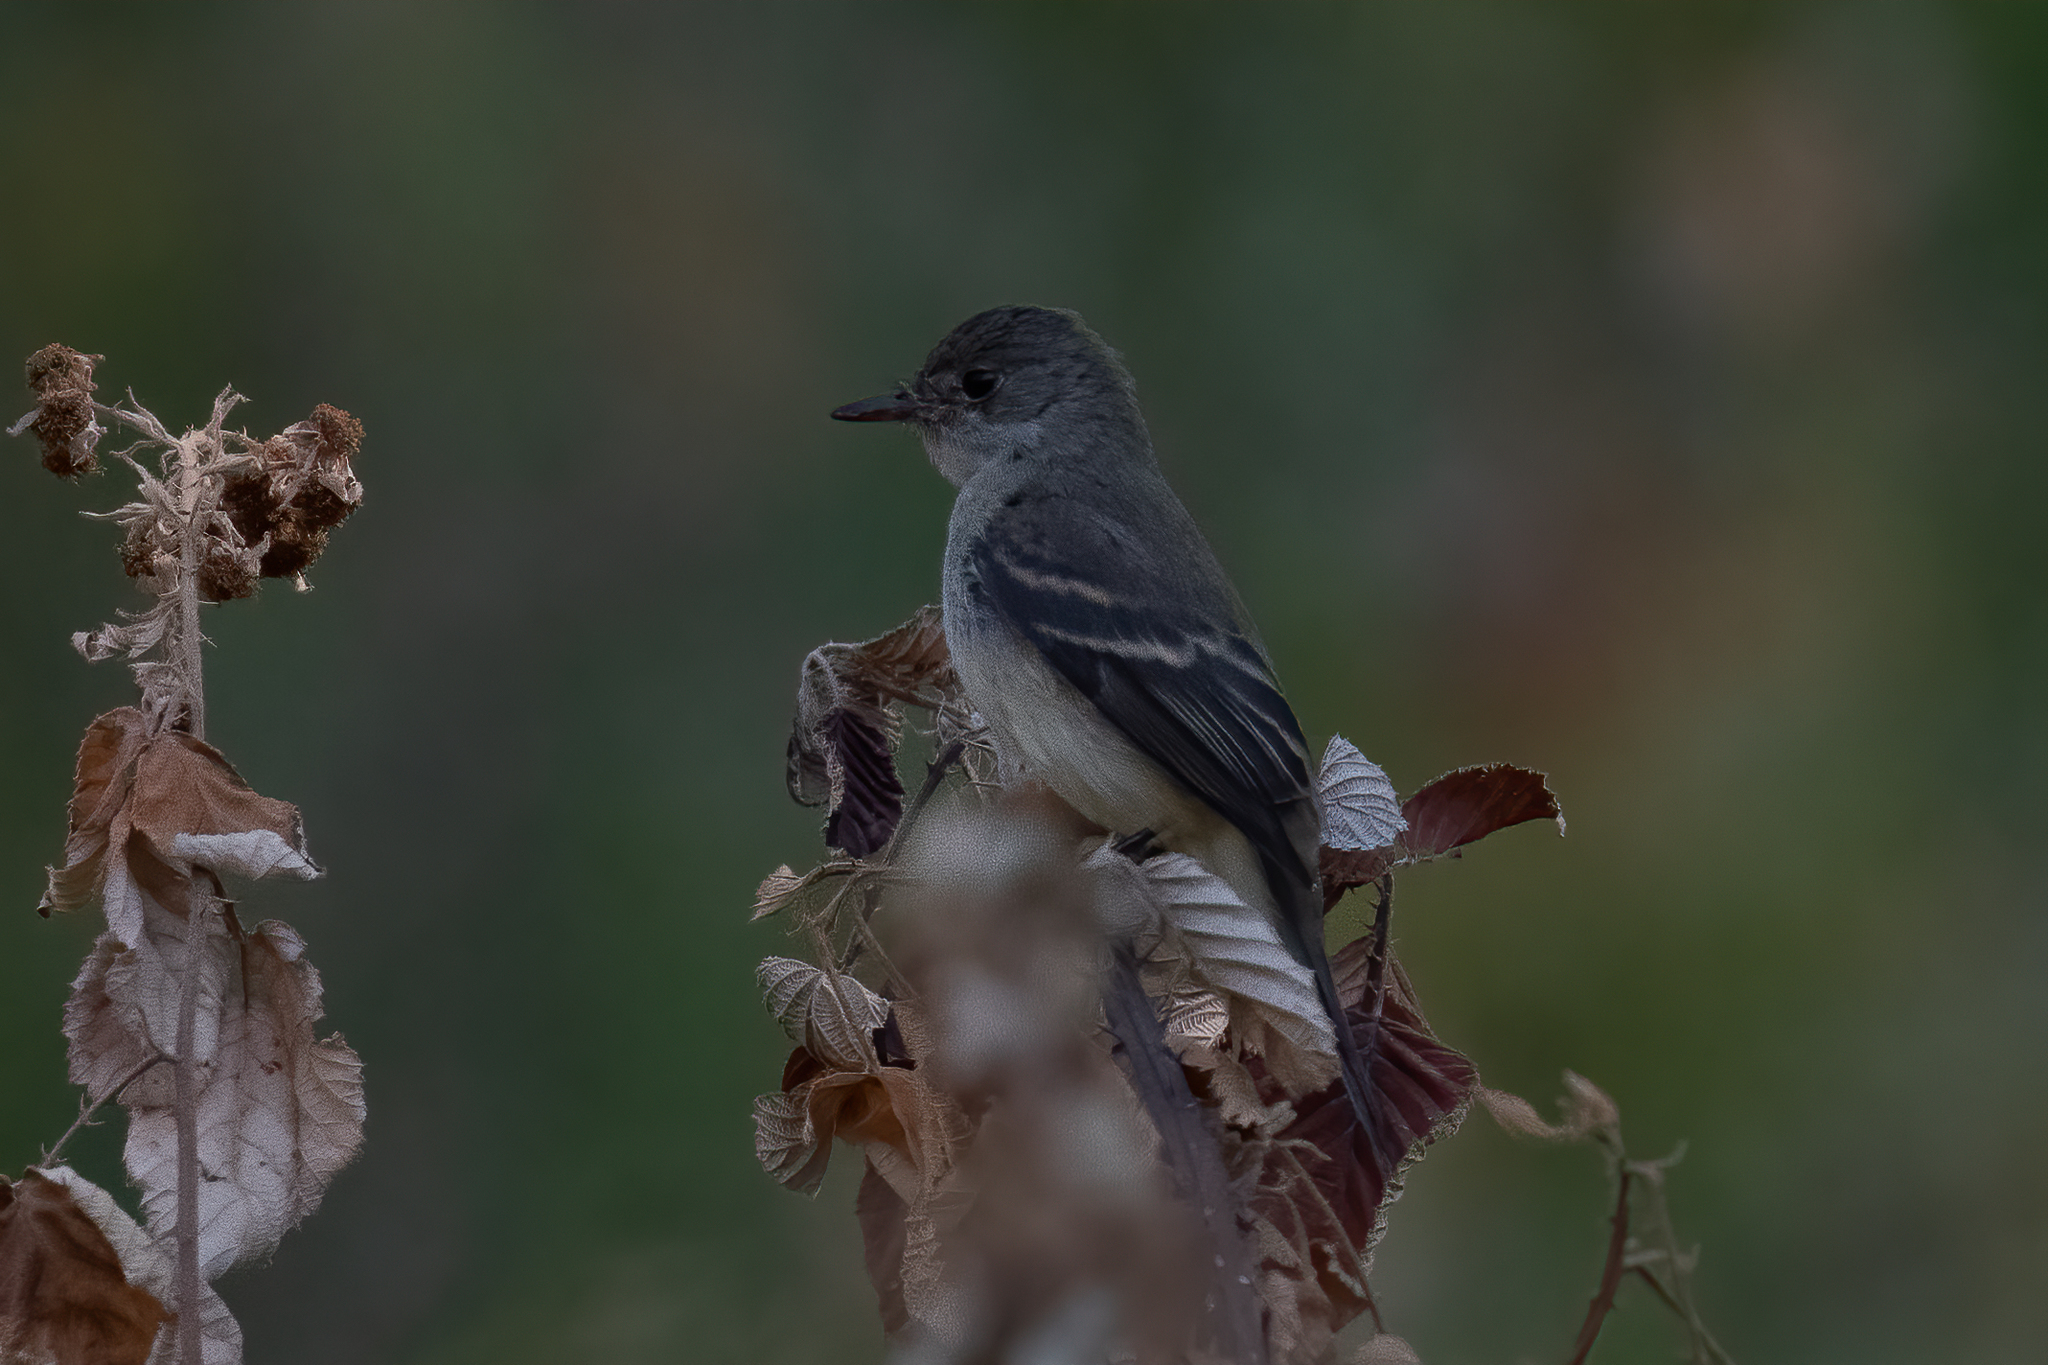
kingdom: Animalia
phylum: Chordata
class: Aves
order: Passeriformes
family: Tyrannidae
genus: Empidonax
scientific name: Empidonax traillii
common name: Willow flycatcher
